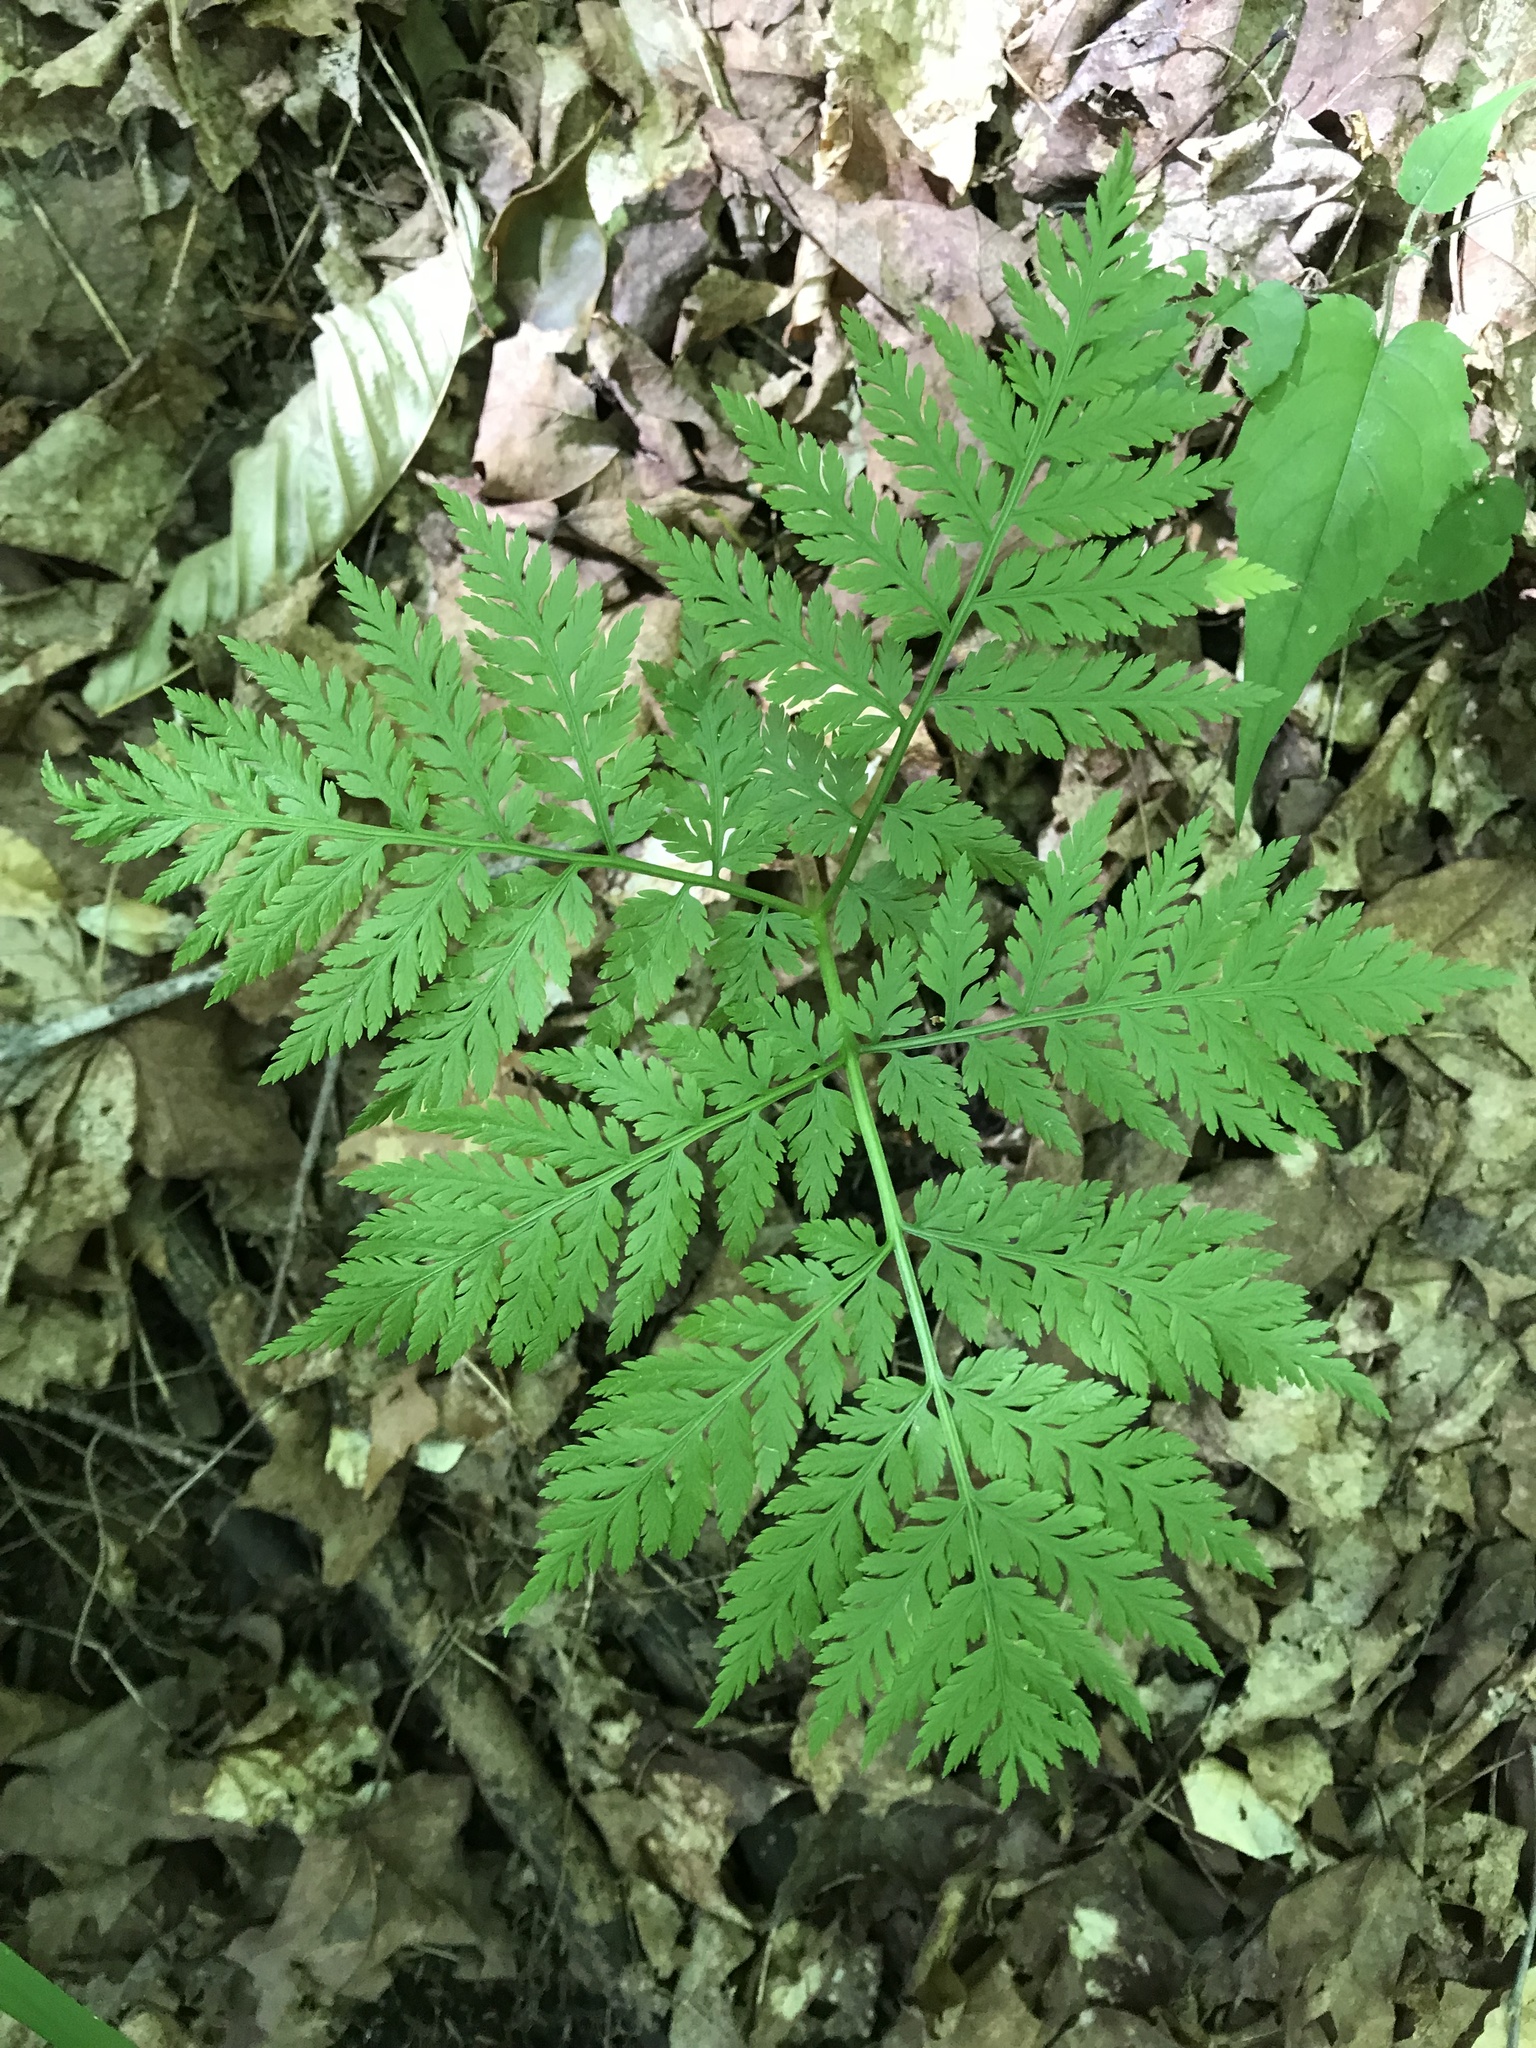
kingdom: Plantae
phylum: Tracheophyta
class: Polypodiopsida
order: Ophioglossales
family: Ophioglossaceae
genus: Botrypus
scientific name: Botrypus virginianus
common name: Common grapefern
